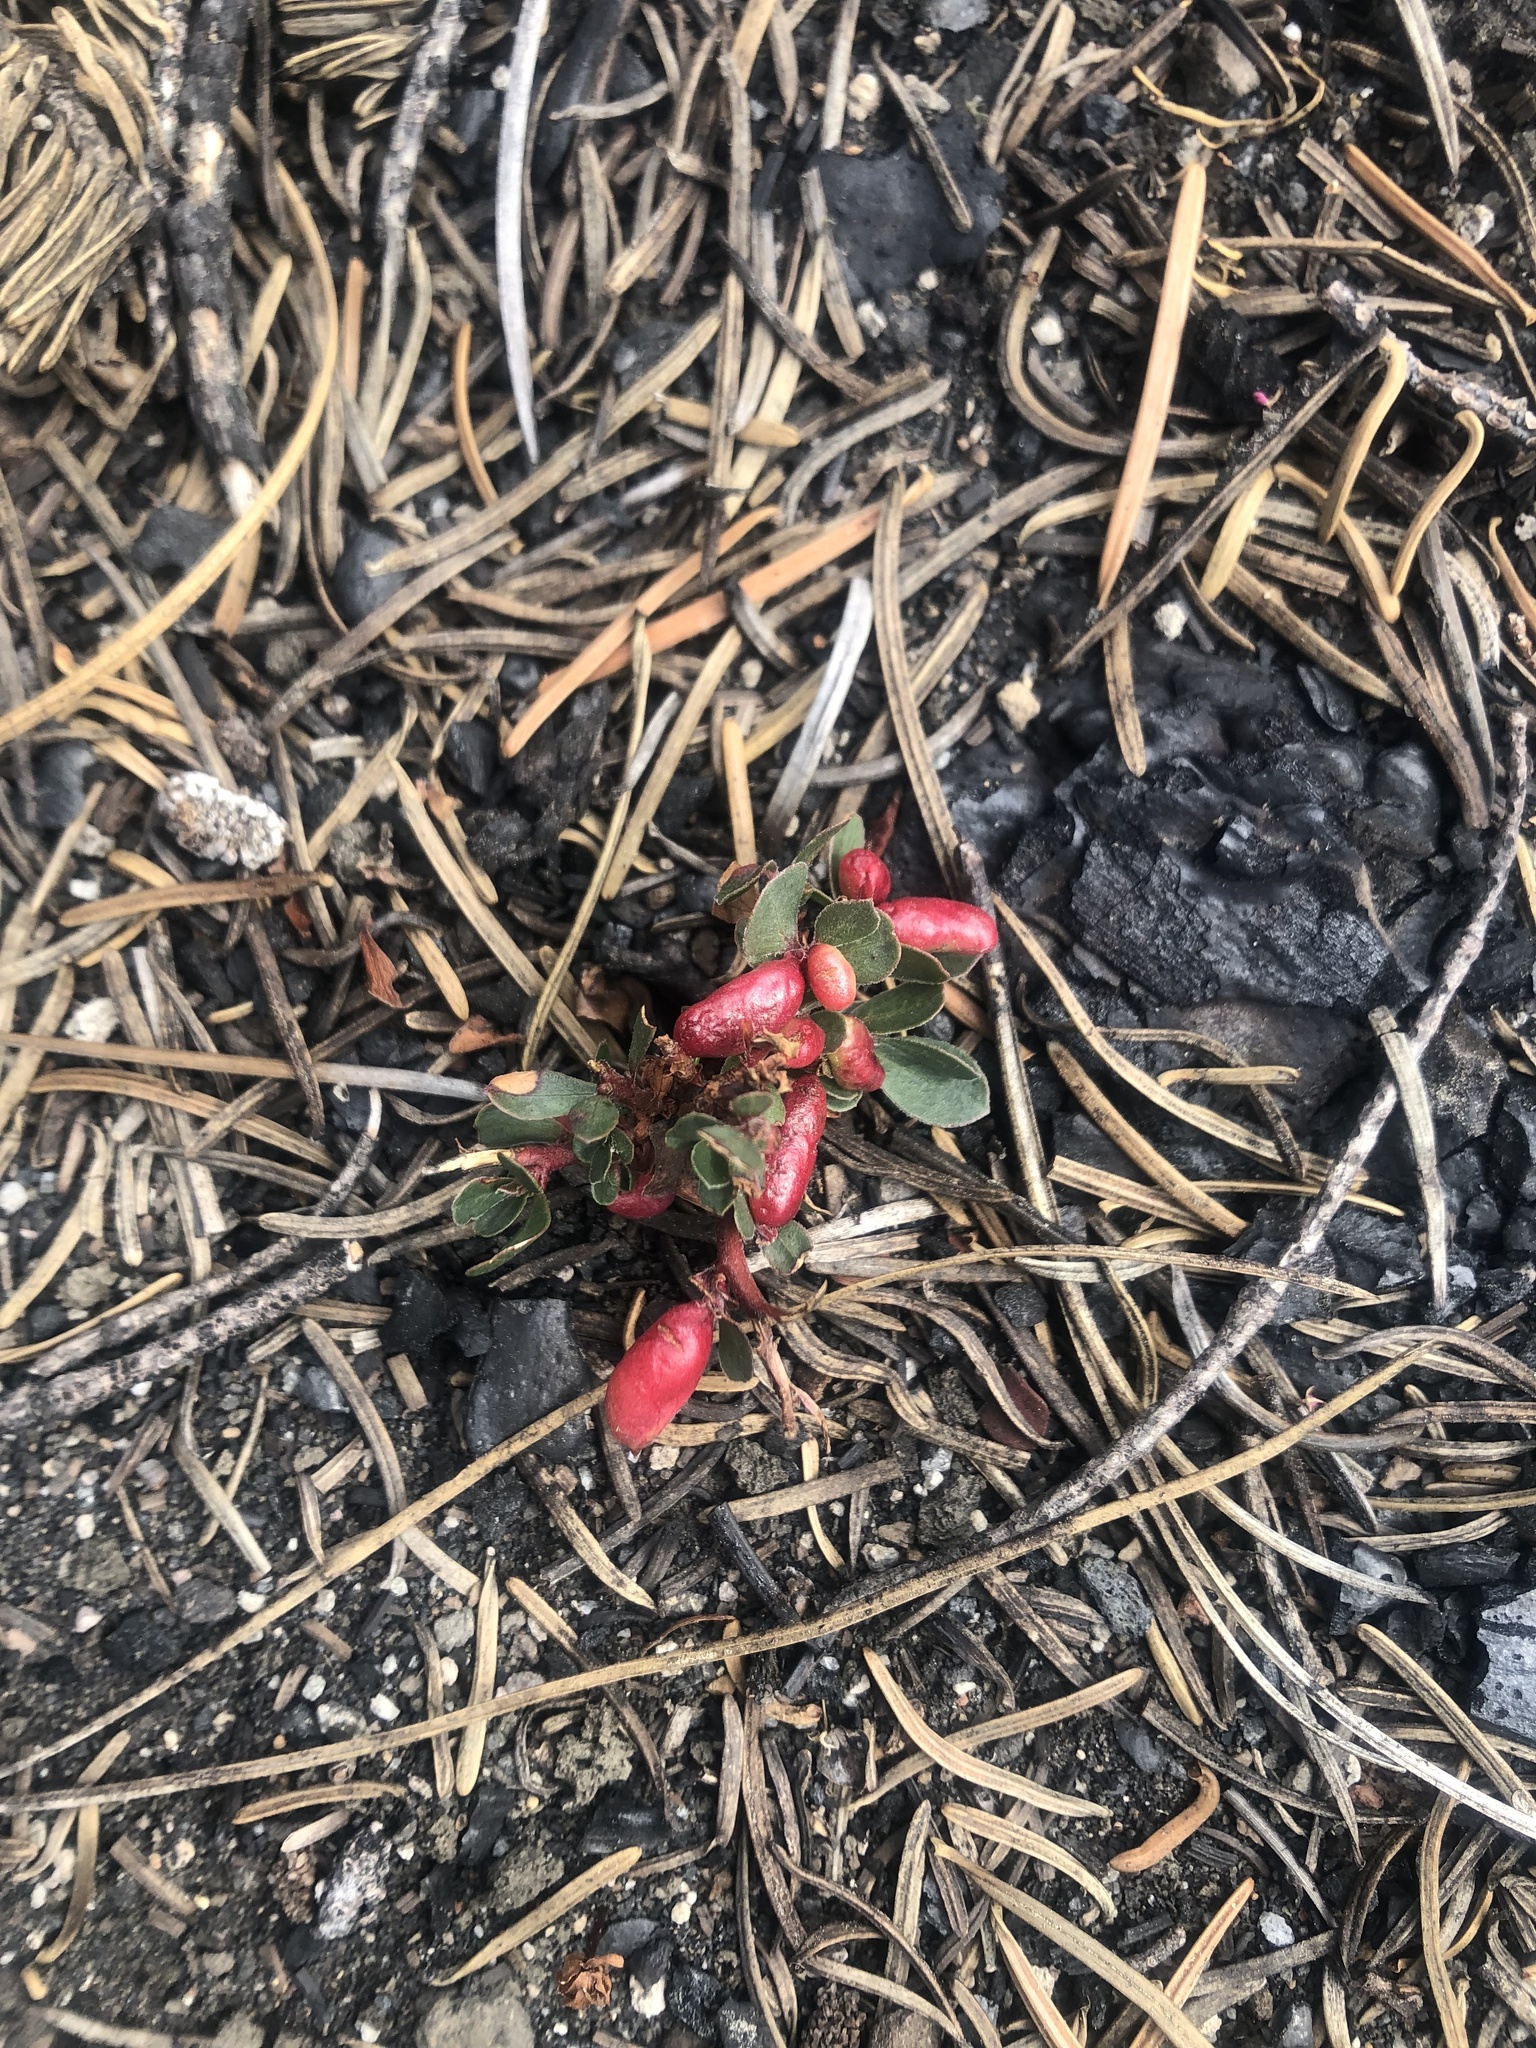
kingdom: Animalia
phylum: Arthropoda
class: Insecta
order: Hemiptera
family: Aphididae
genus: Tamalia
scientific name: Tamalia coweni
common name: Manzanita leafgall aphid
